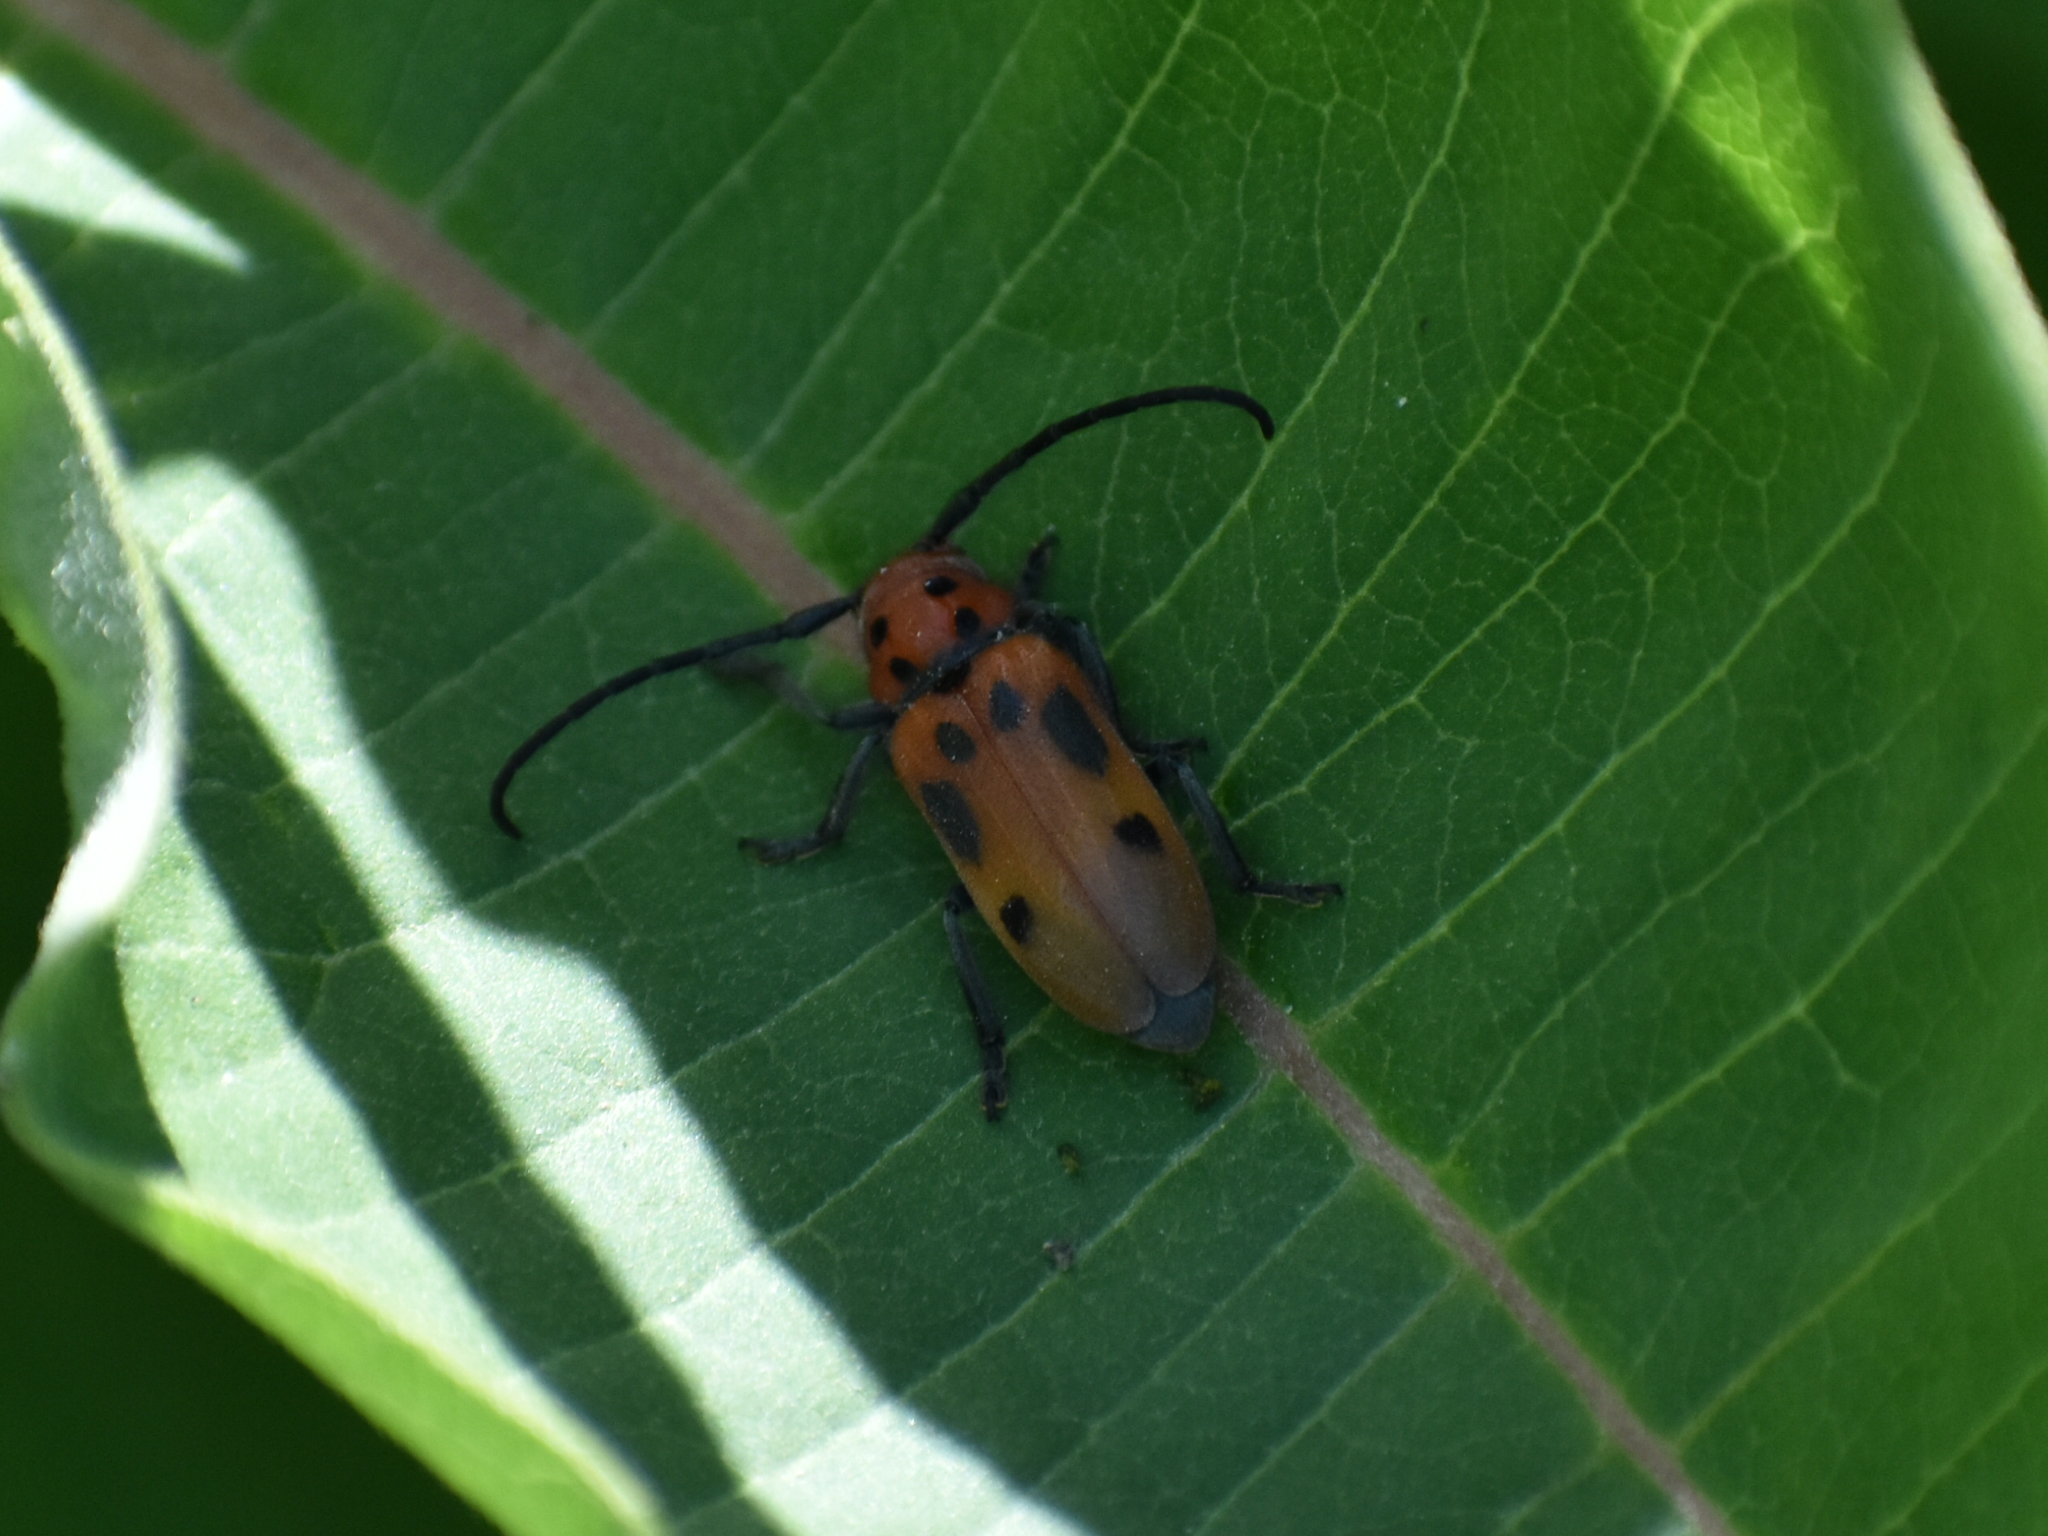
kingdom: Animalia
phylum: Arthropoda
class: Insecta
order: Coleoptera
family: Cerambycidae
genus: Tetraopes
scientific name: Tetraopes tetrophthalmus
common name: Red milkweed beetle
